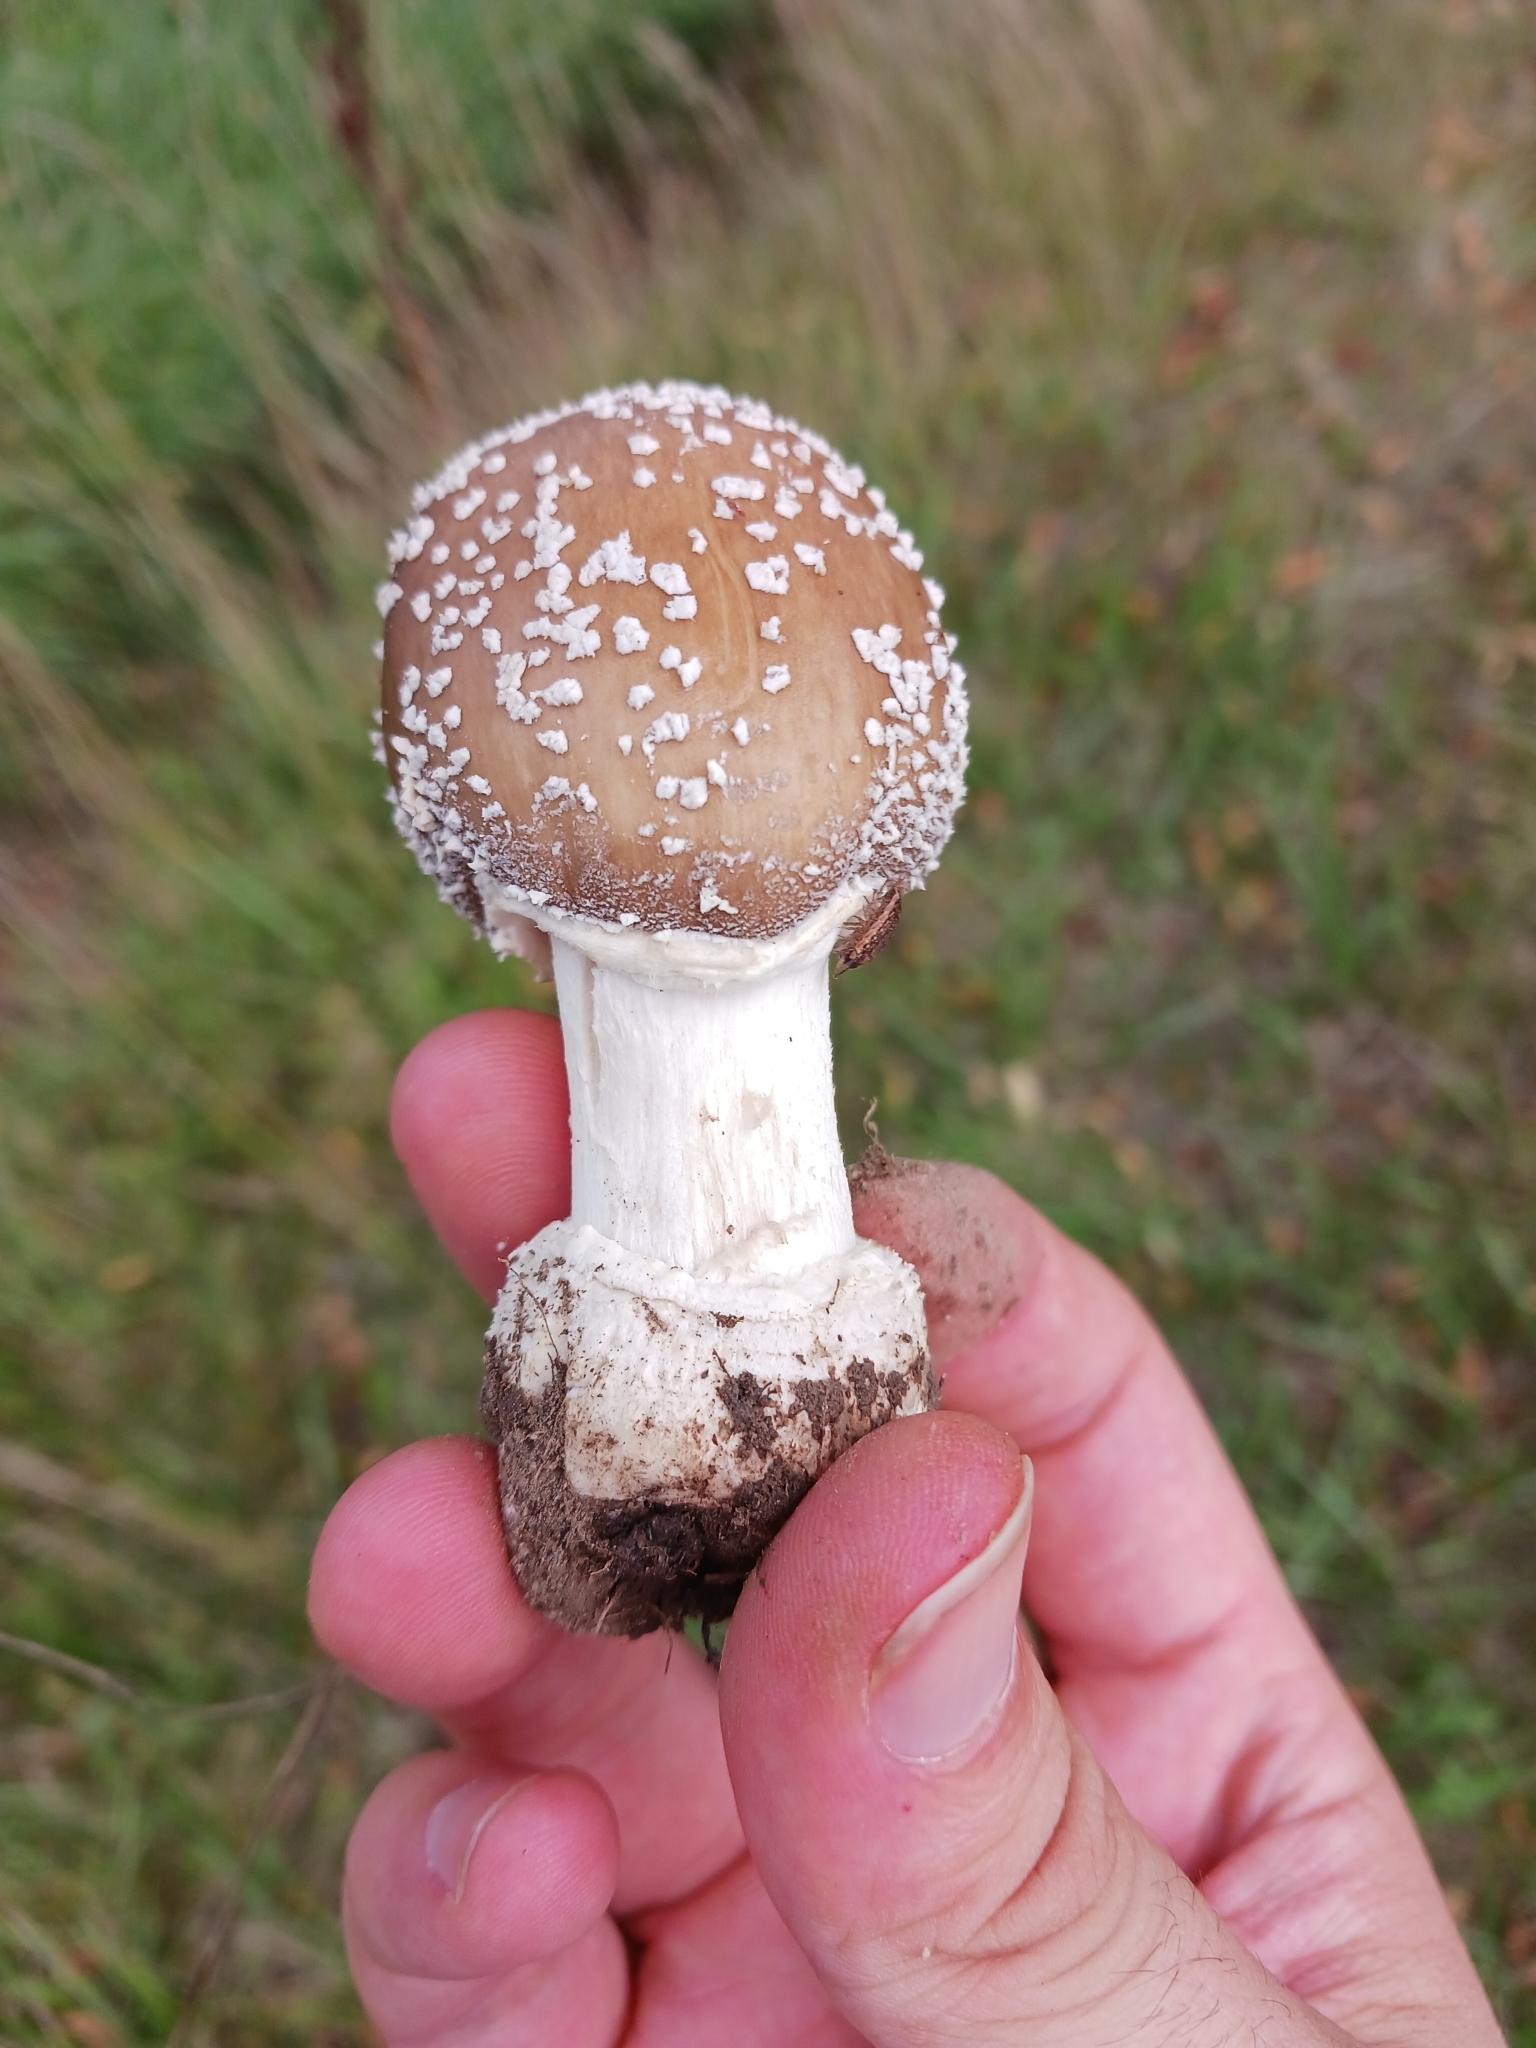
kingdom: Fungi
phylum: Basidiomycota
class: Agaricomycetes
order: Agaricales
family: Amanitaceae
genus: Amanita
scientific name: Amanita pantherina
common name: Panthercap
